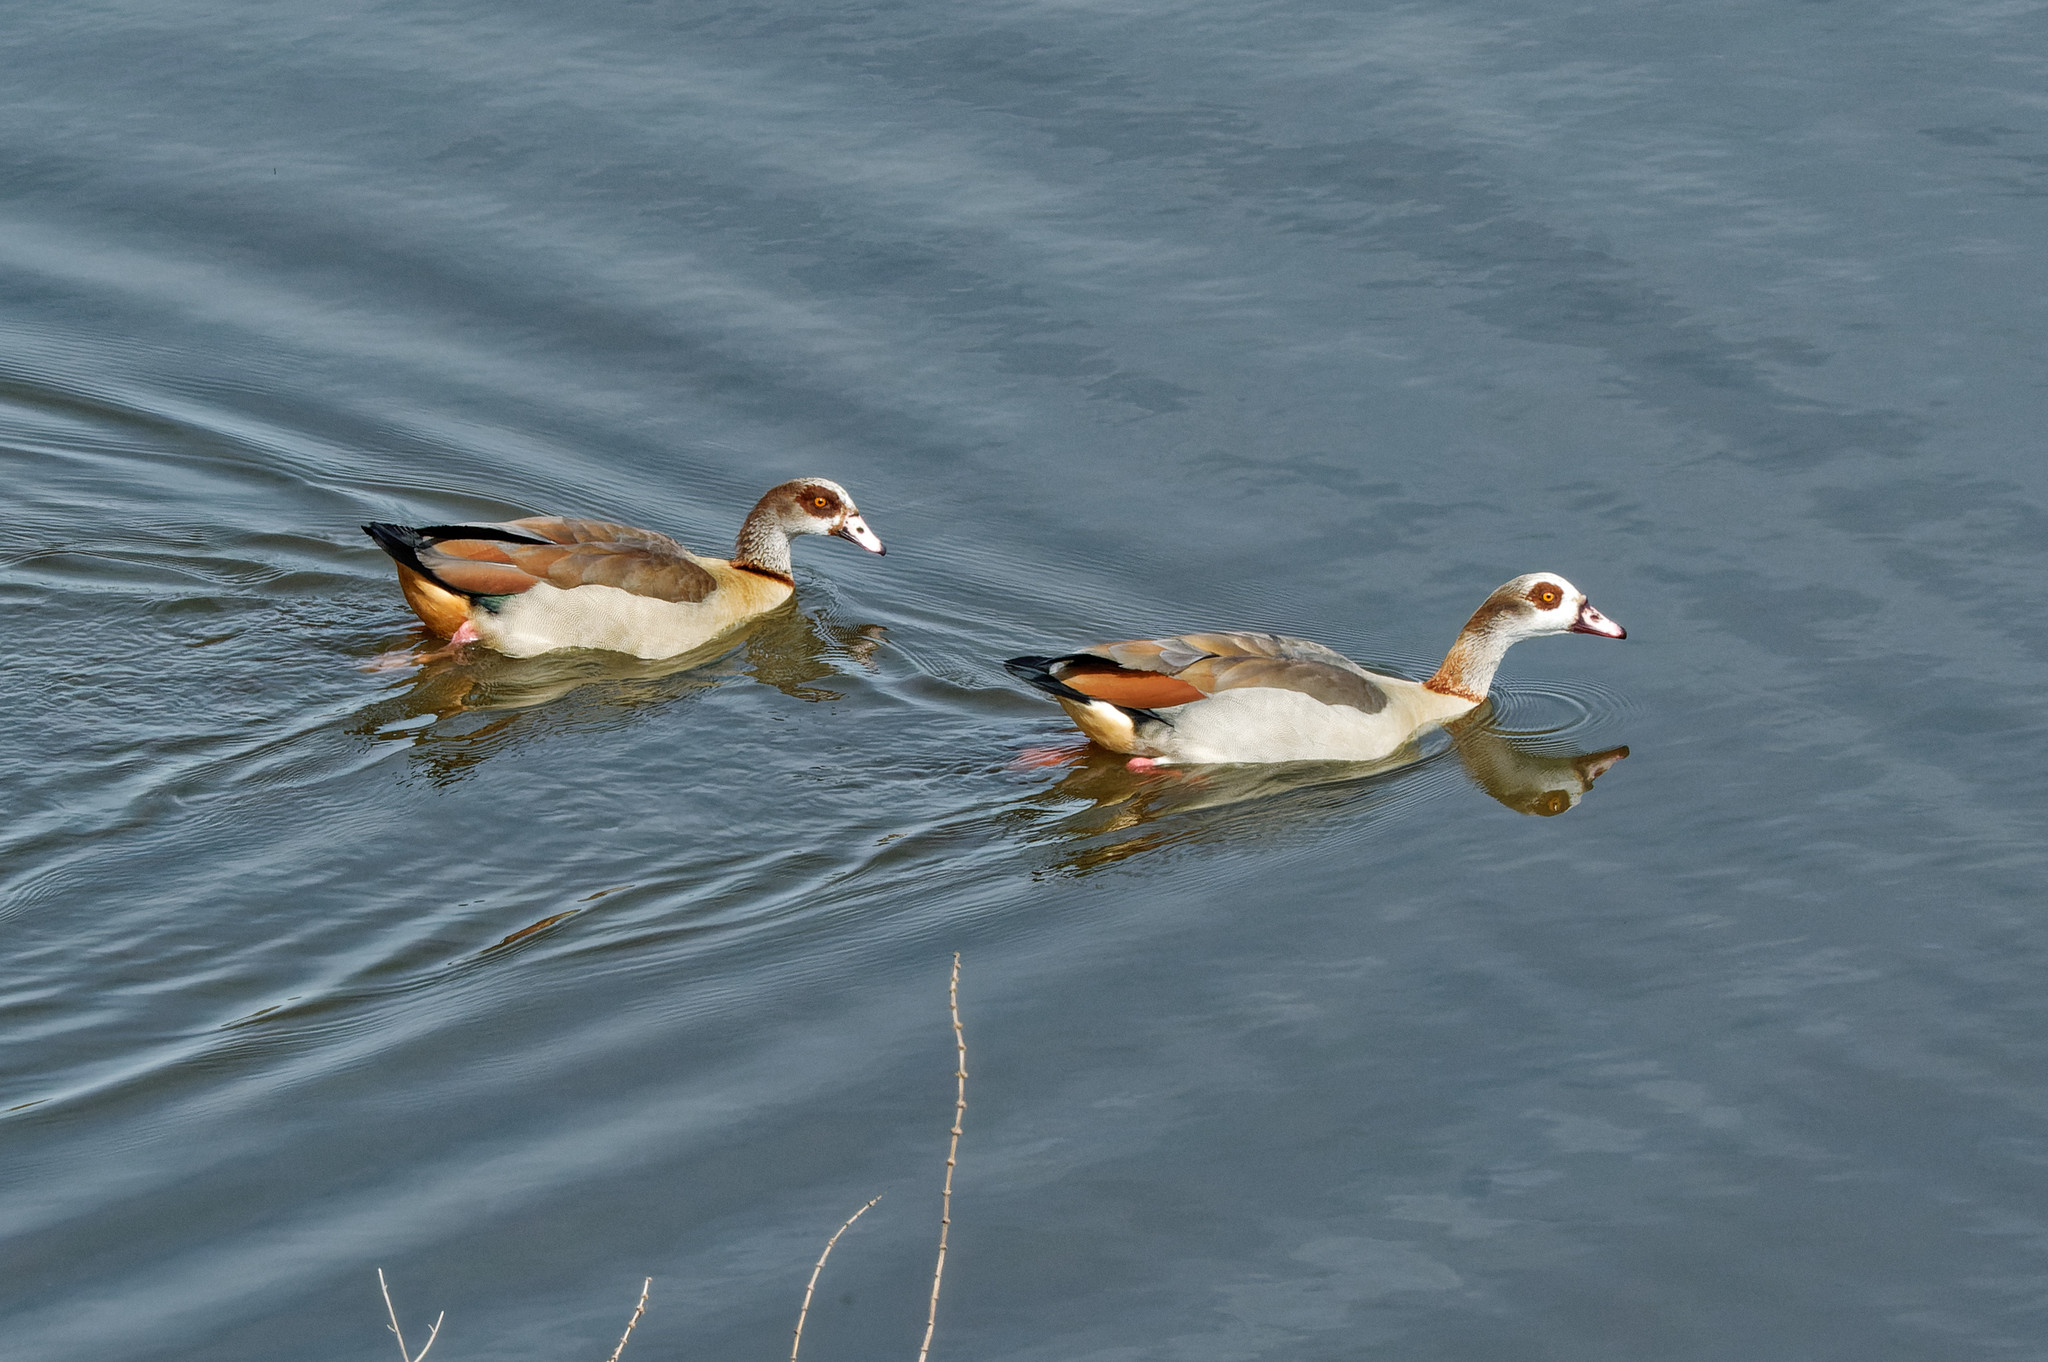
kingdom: Animalia
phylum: Chordata
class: Aves
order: Anseriformes
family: Anatidae
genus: Alopochen
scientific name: Alopochen aegyptiaca
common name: Egyptian goose
